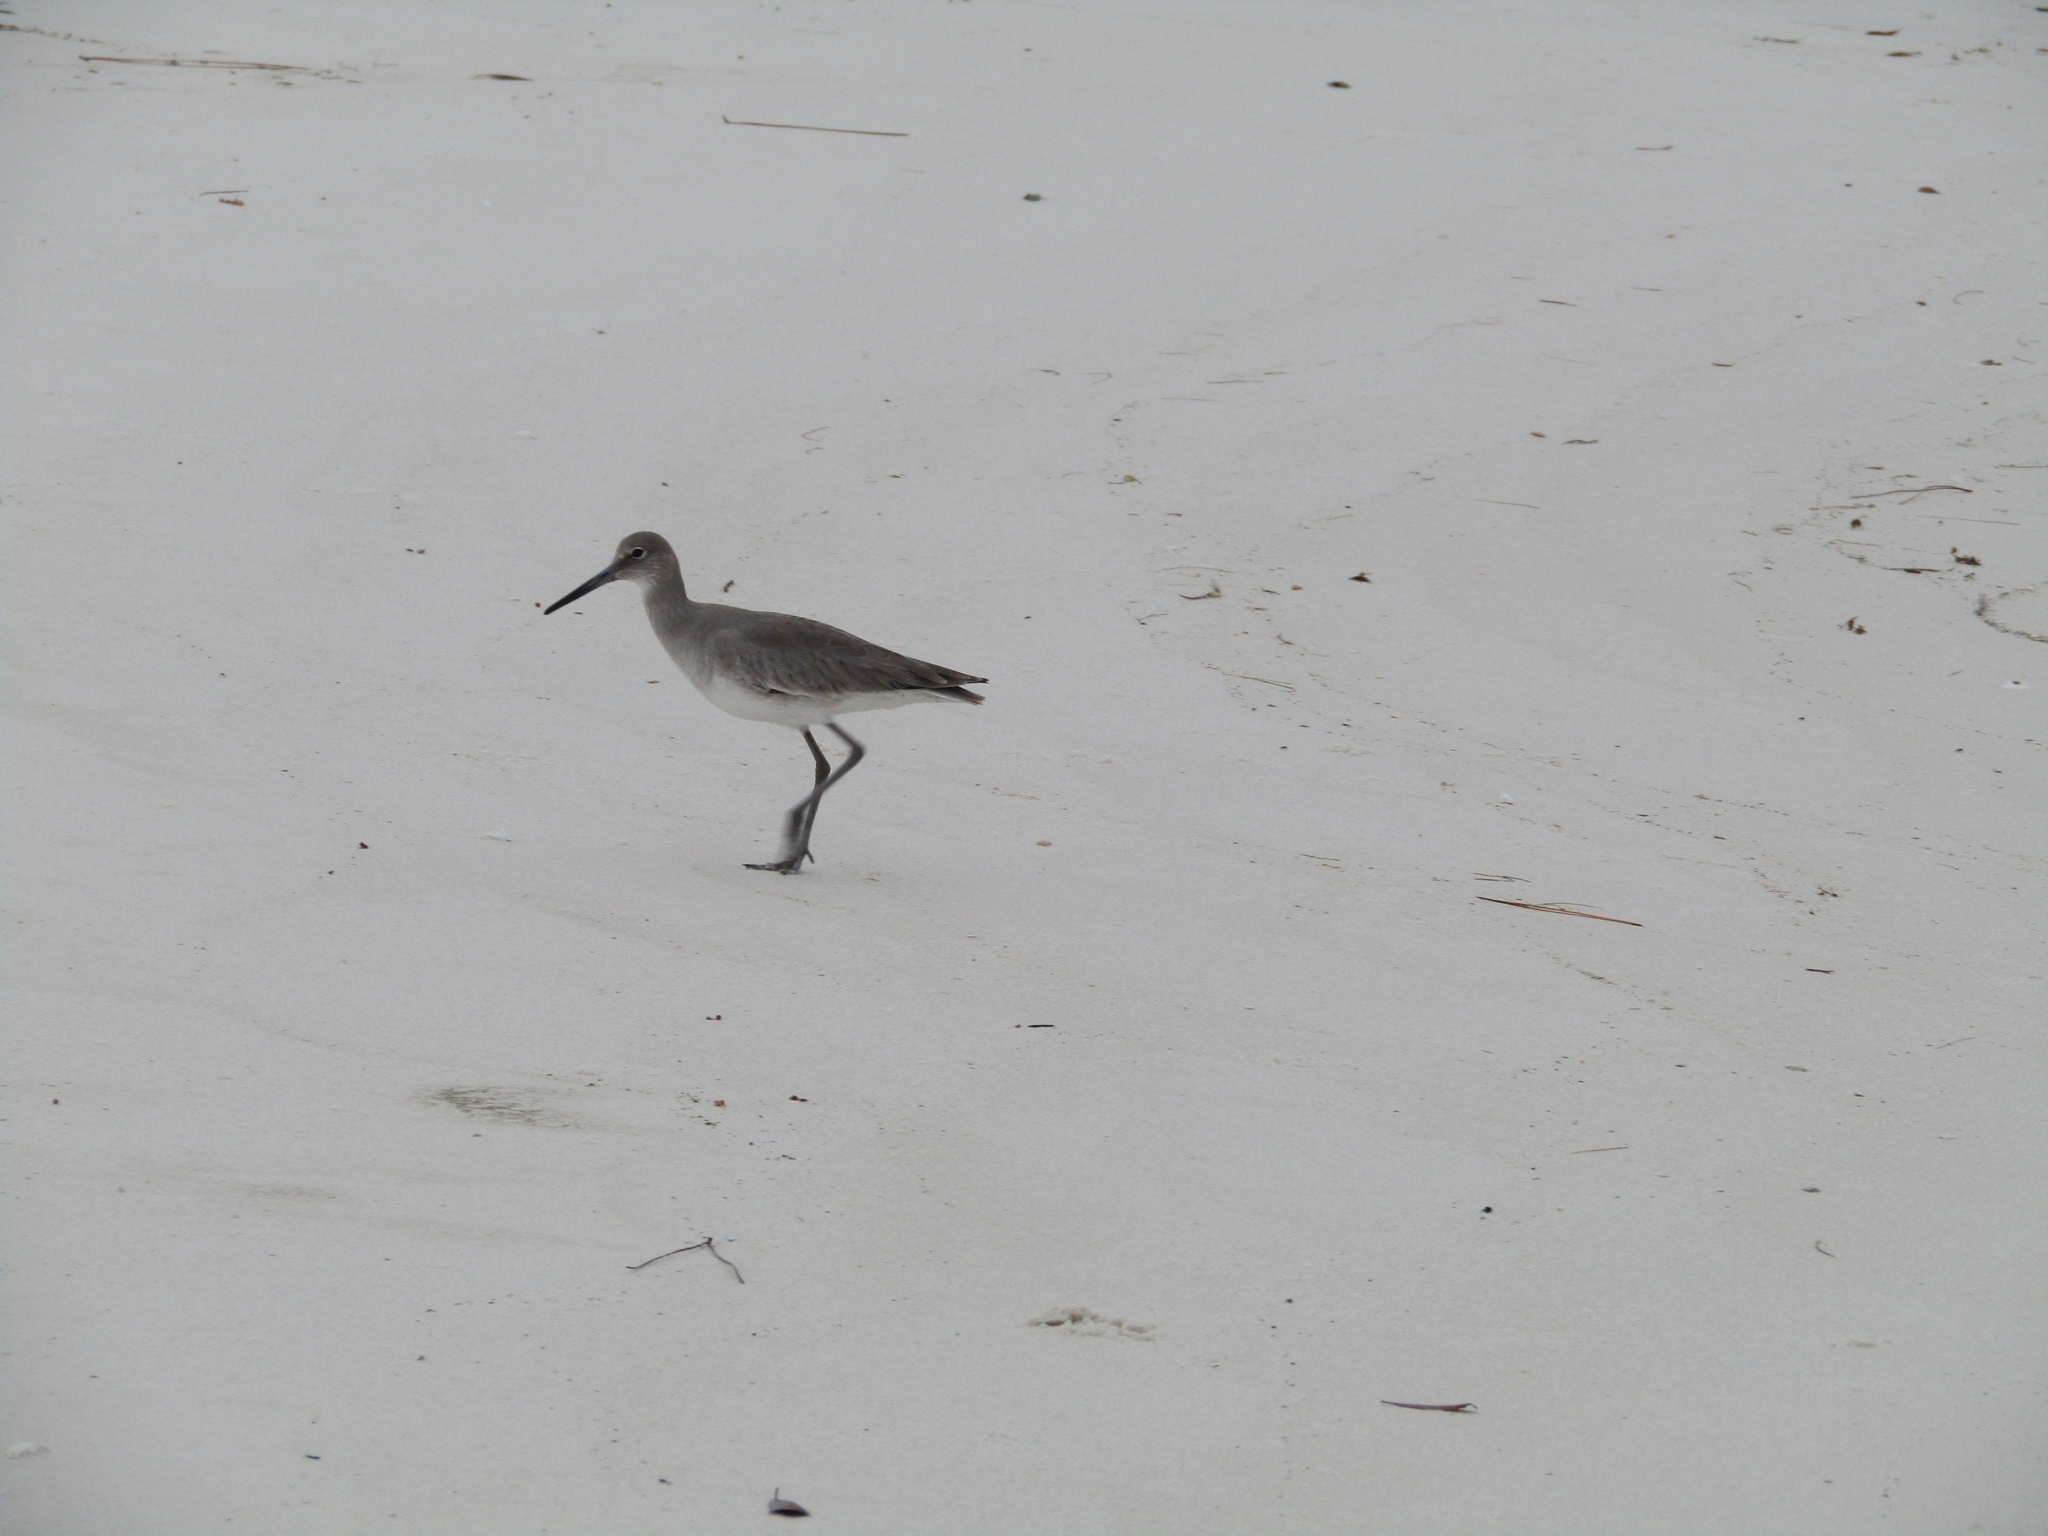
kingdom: Animalia
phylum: Chordata
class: Aves
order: Charadriiformes
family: Scolopacidae
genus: Tringa
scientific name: Tringa semipalmata
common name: Willet
